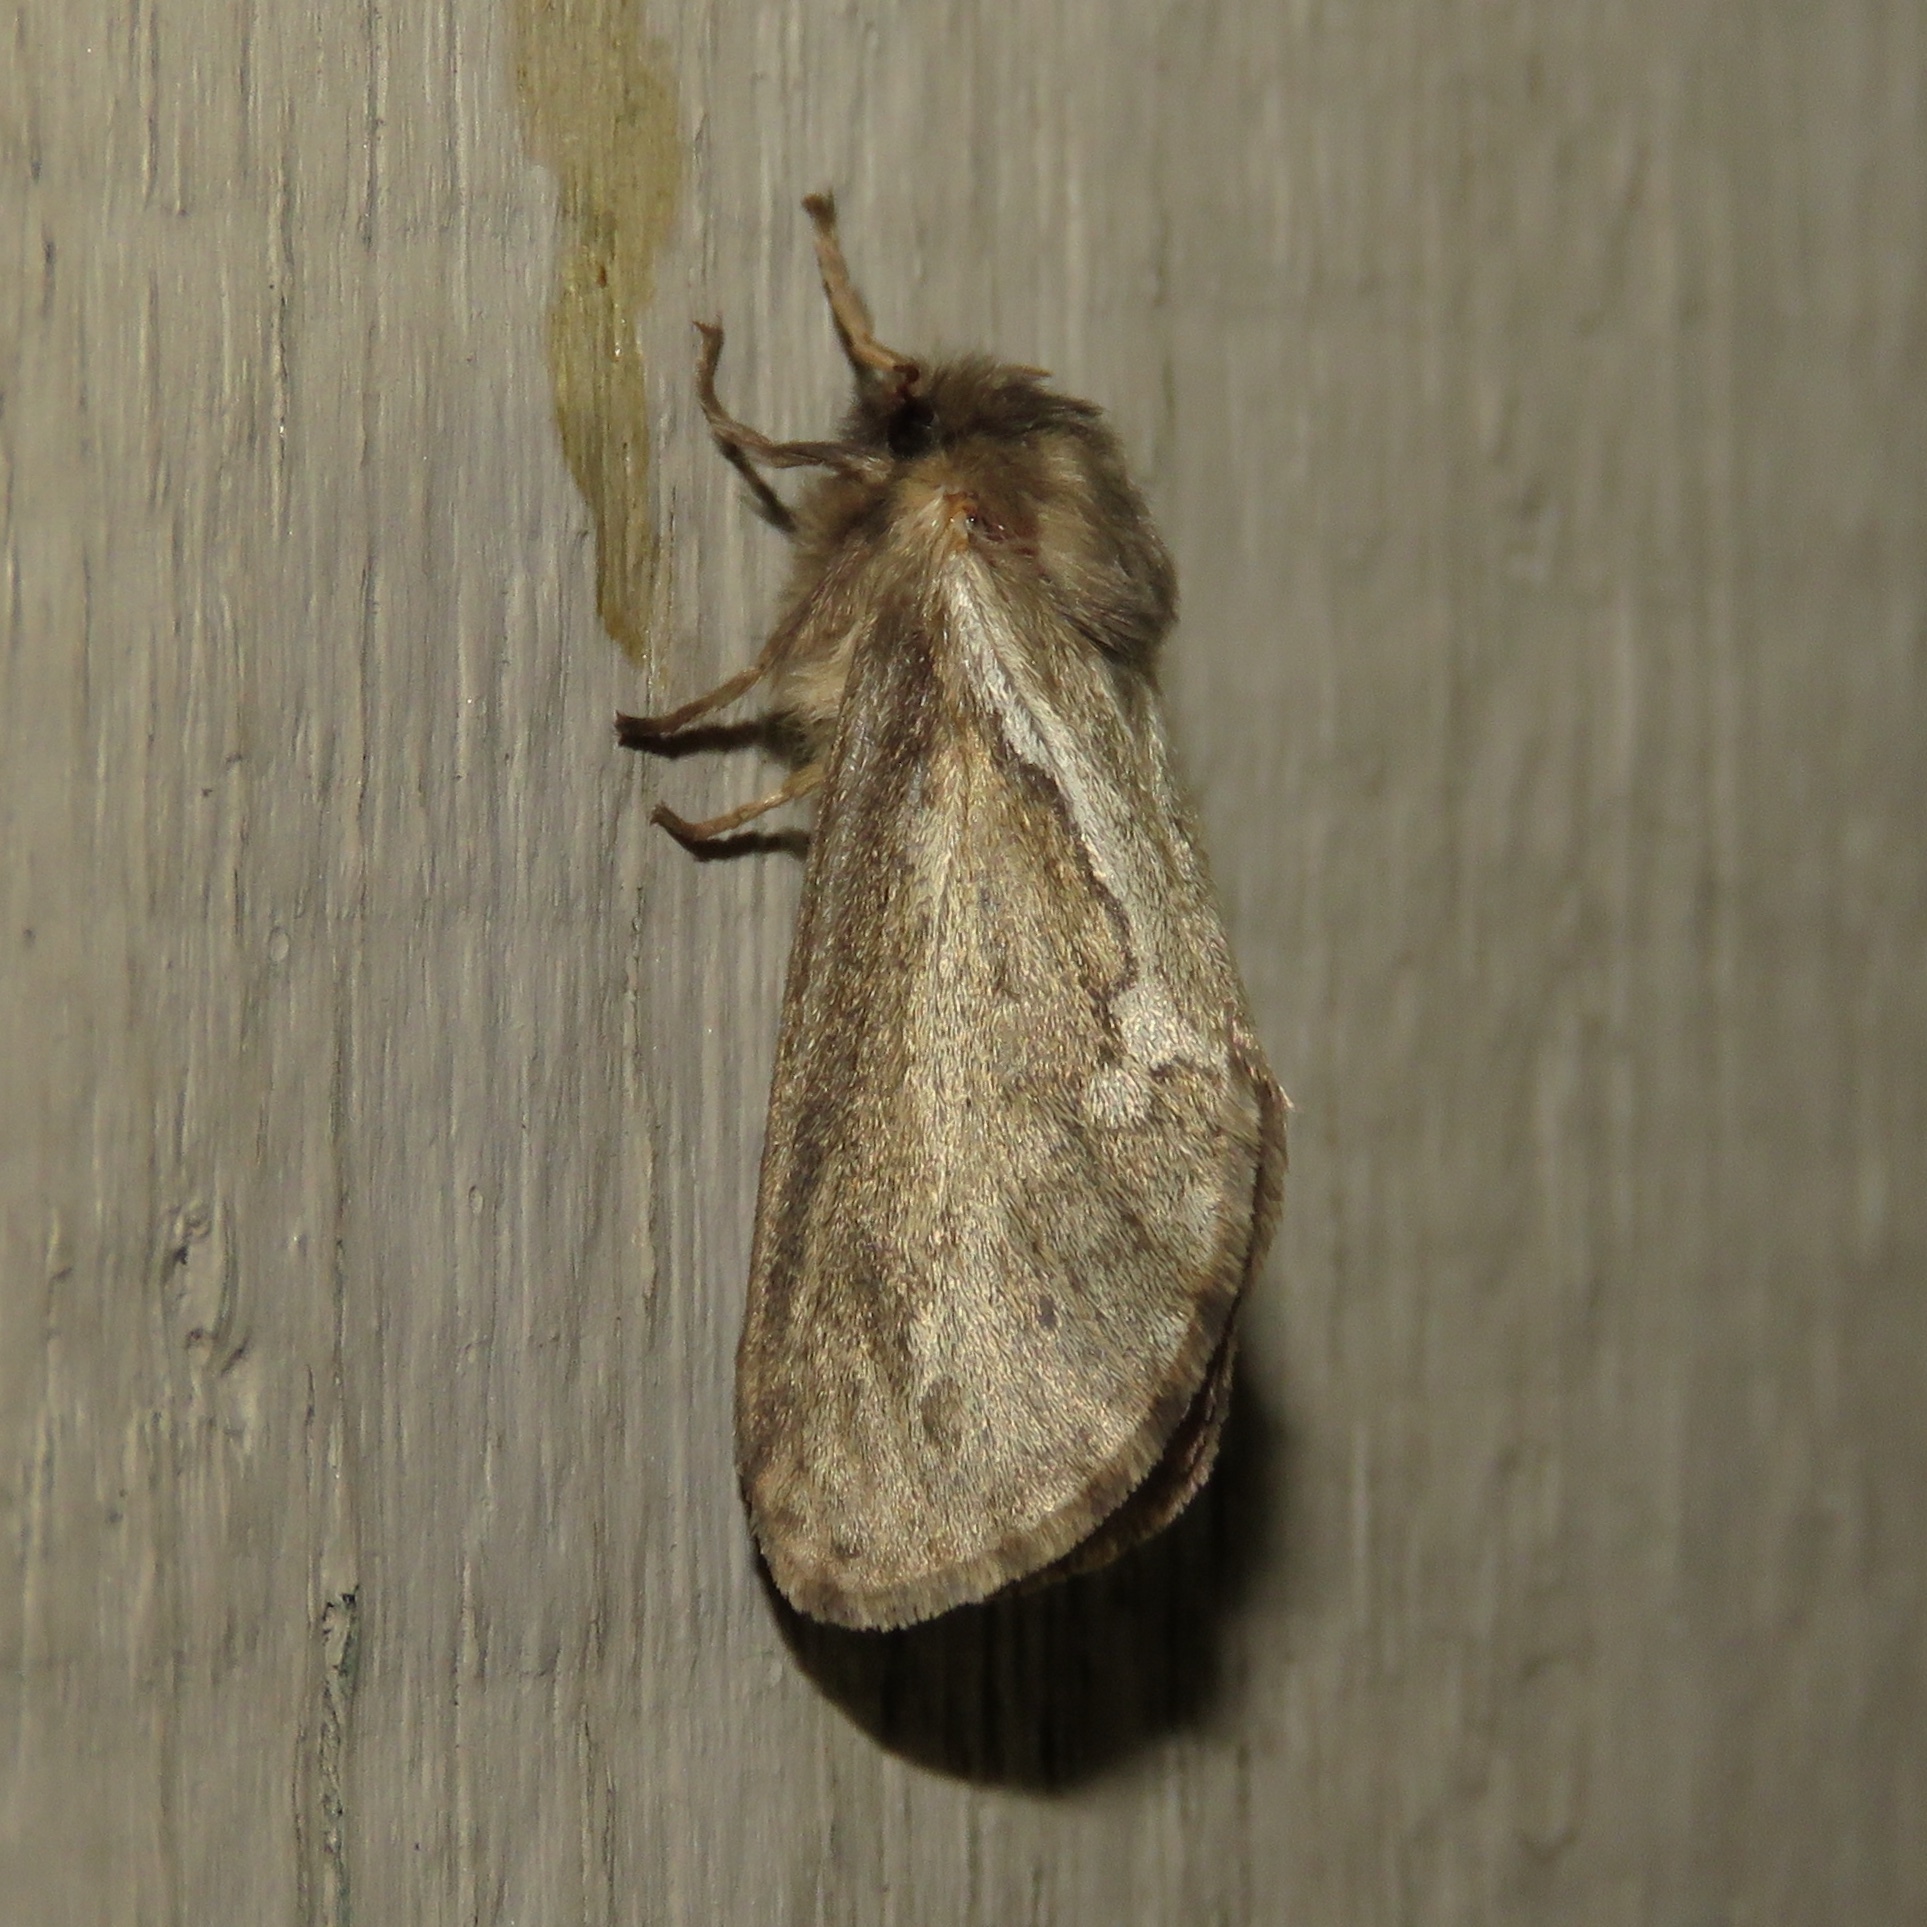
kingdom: Animalia
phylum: Arthropoda
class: Insecta
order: Lepidoptera
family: Hepialidae
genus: Korscheltellus
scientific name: Korscheltellus lupulina
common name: Common swift
